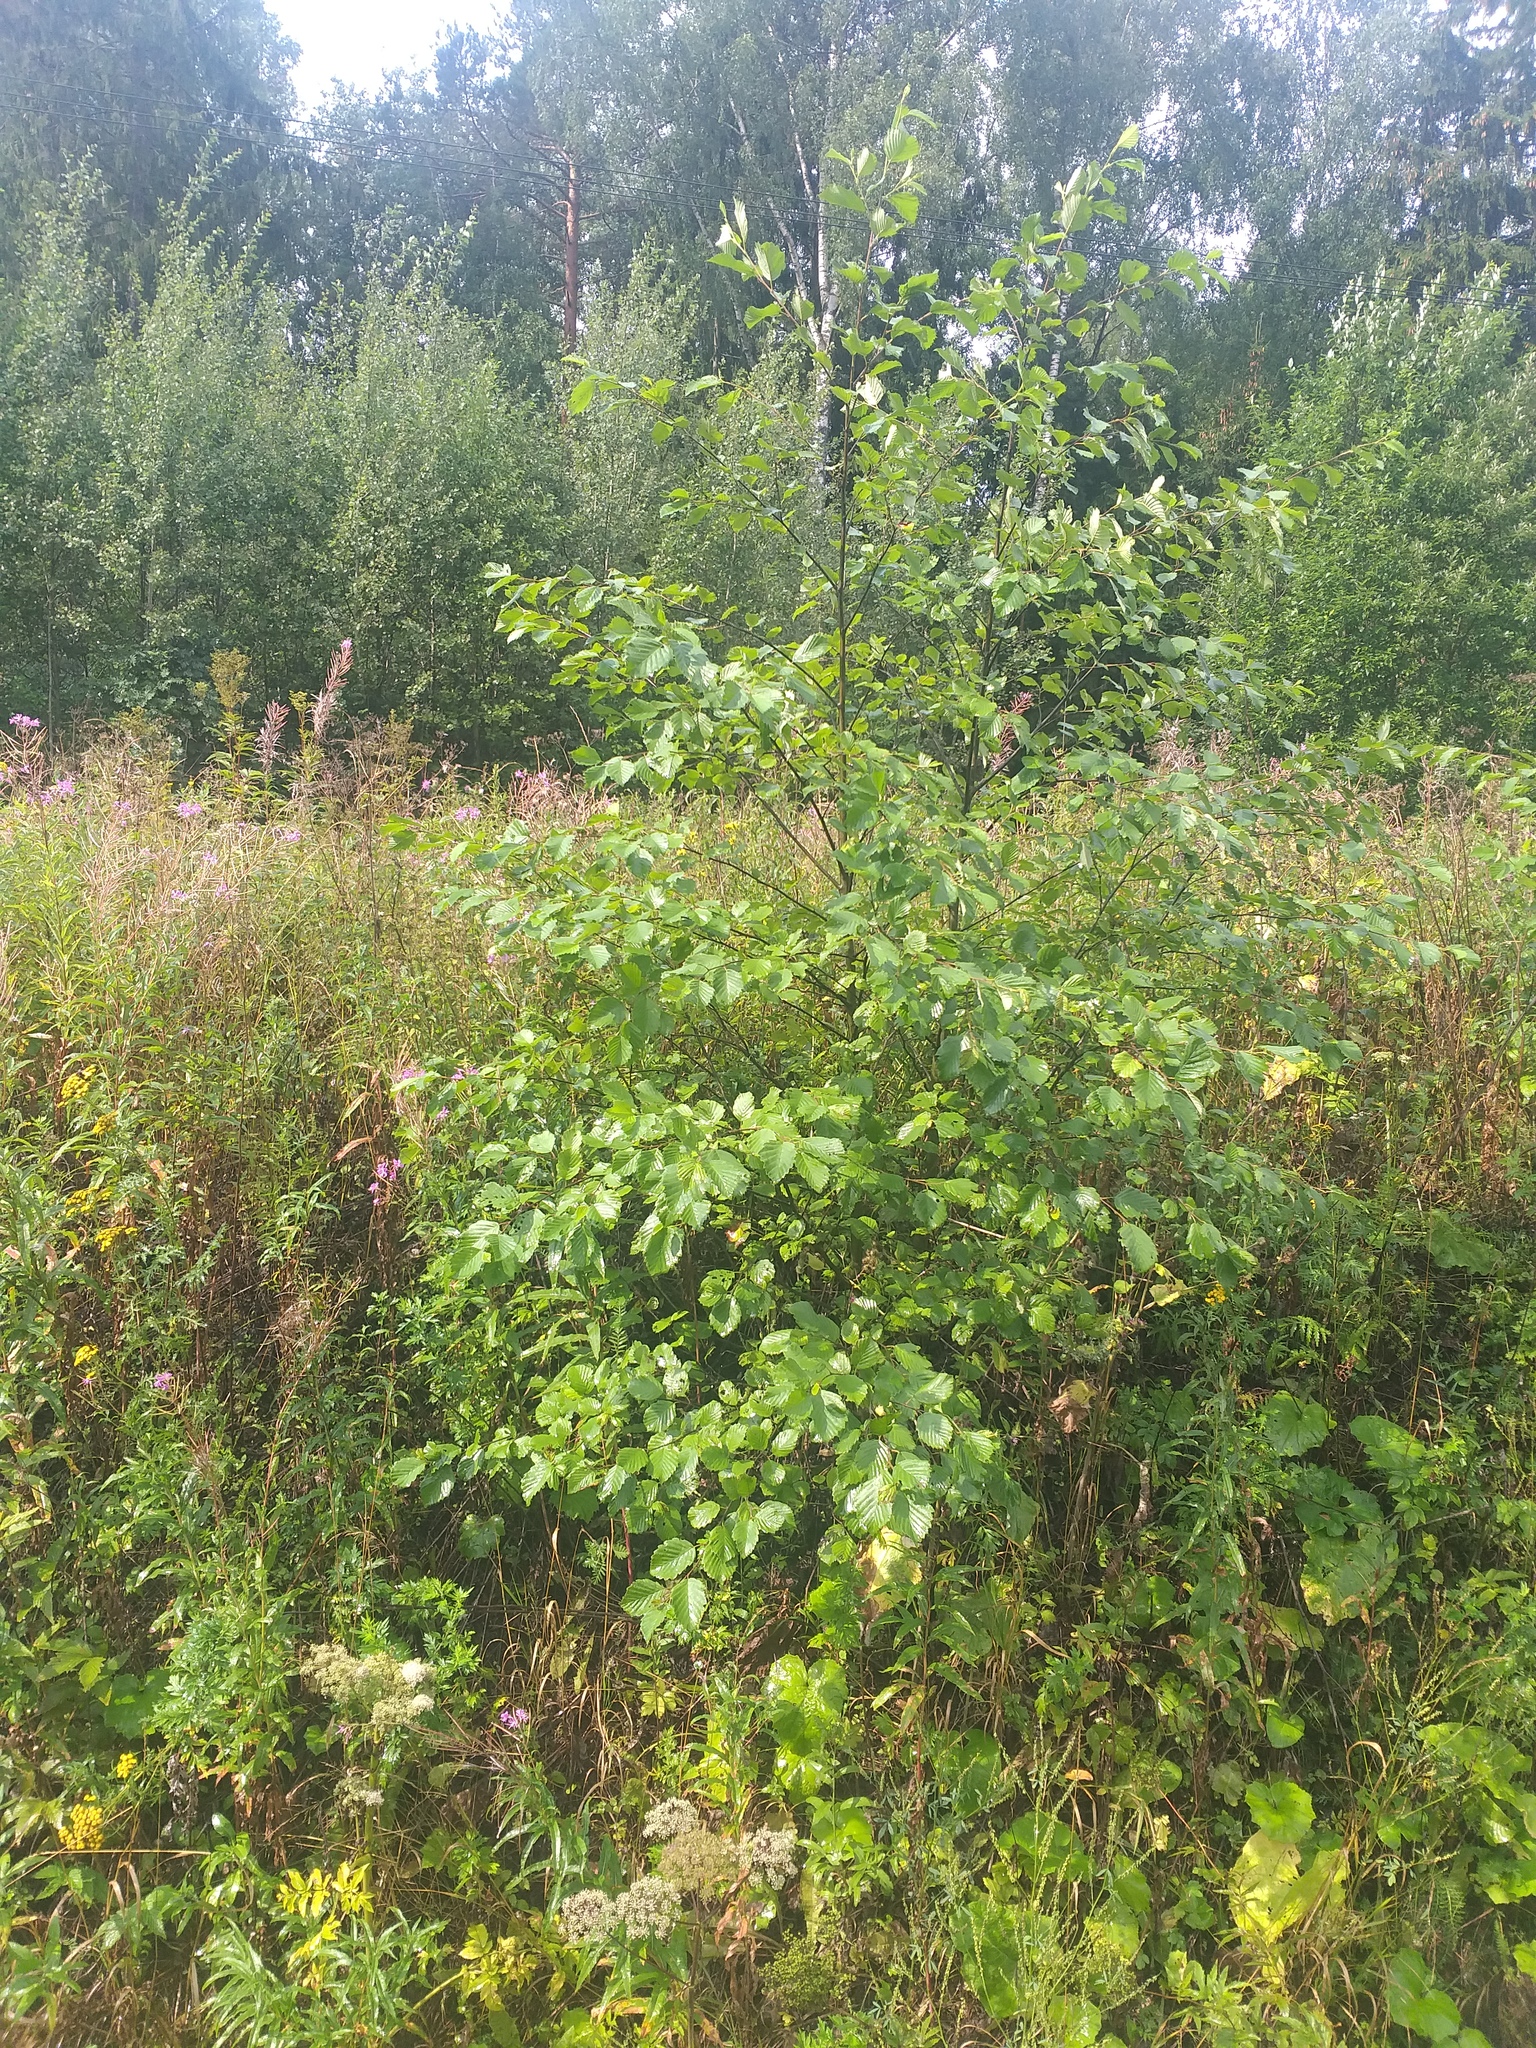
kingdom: Plantae
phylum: Tracheophyta
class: Magnoliopsida
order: Fagales
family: Betulaceae
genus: Alnus
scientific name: Alnus incana
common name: Grey alder
